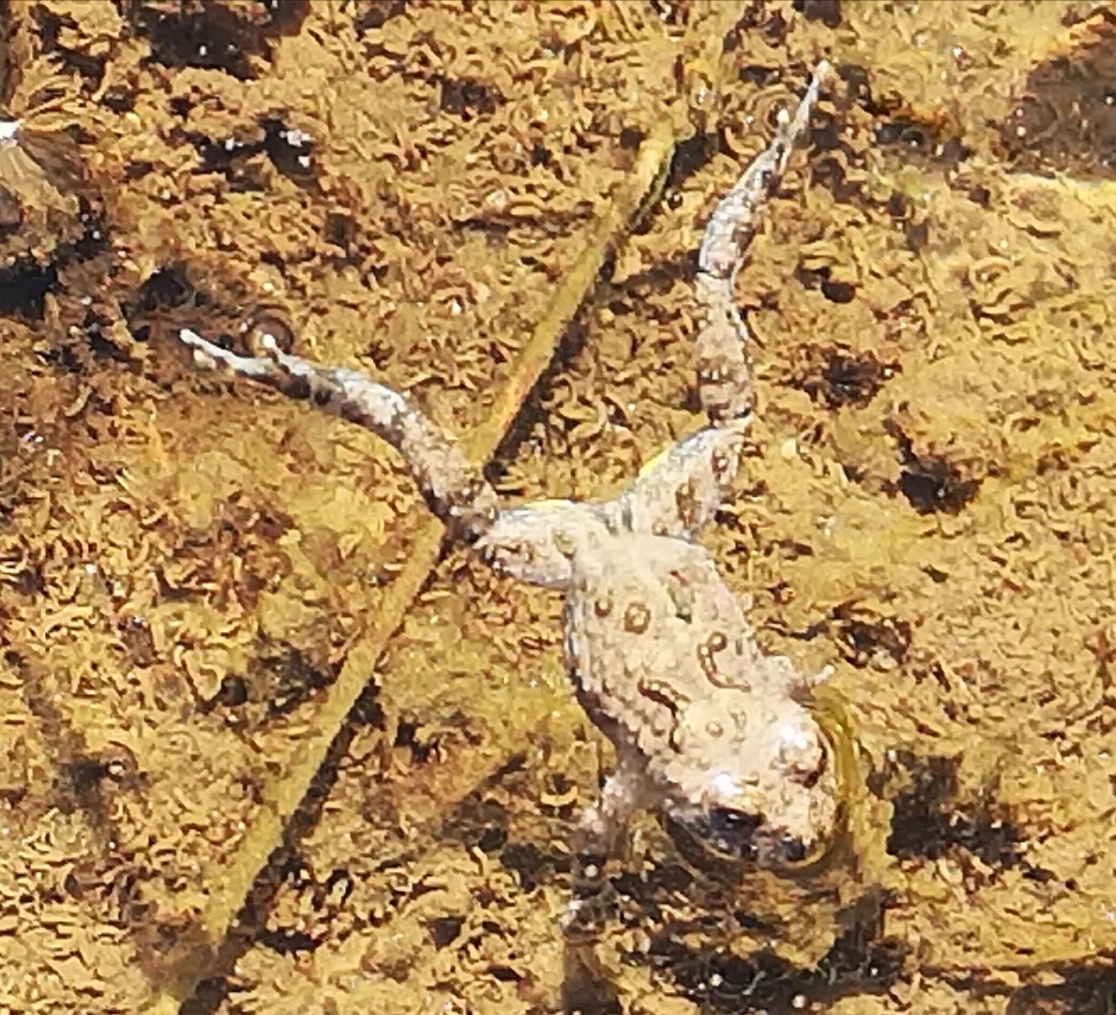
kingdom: Animalia
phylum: Chordata
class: Amphibia
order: Anura
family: Bombinatoridae
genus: Bombina
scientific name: Bombina variegata
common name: Yellow-bellied toad
